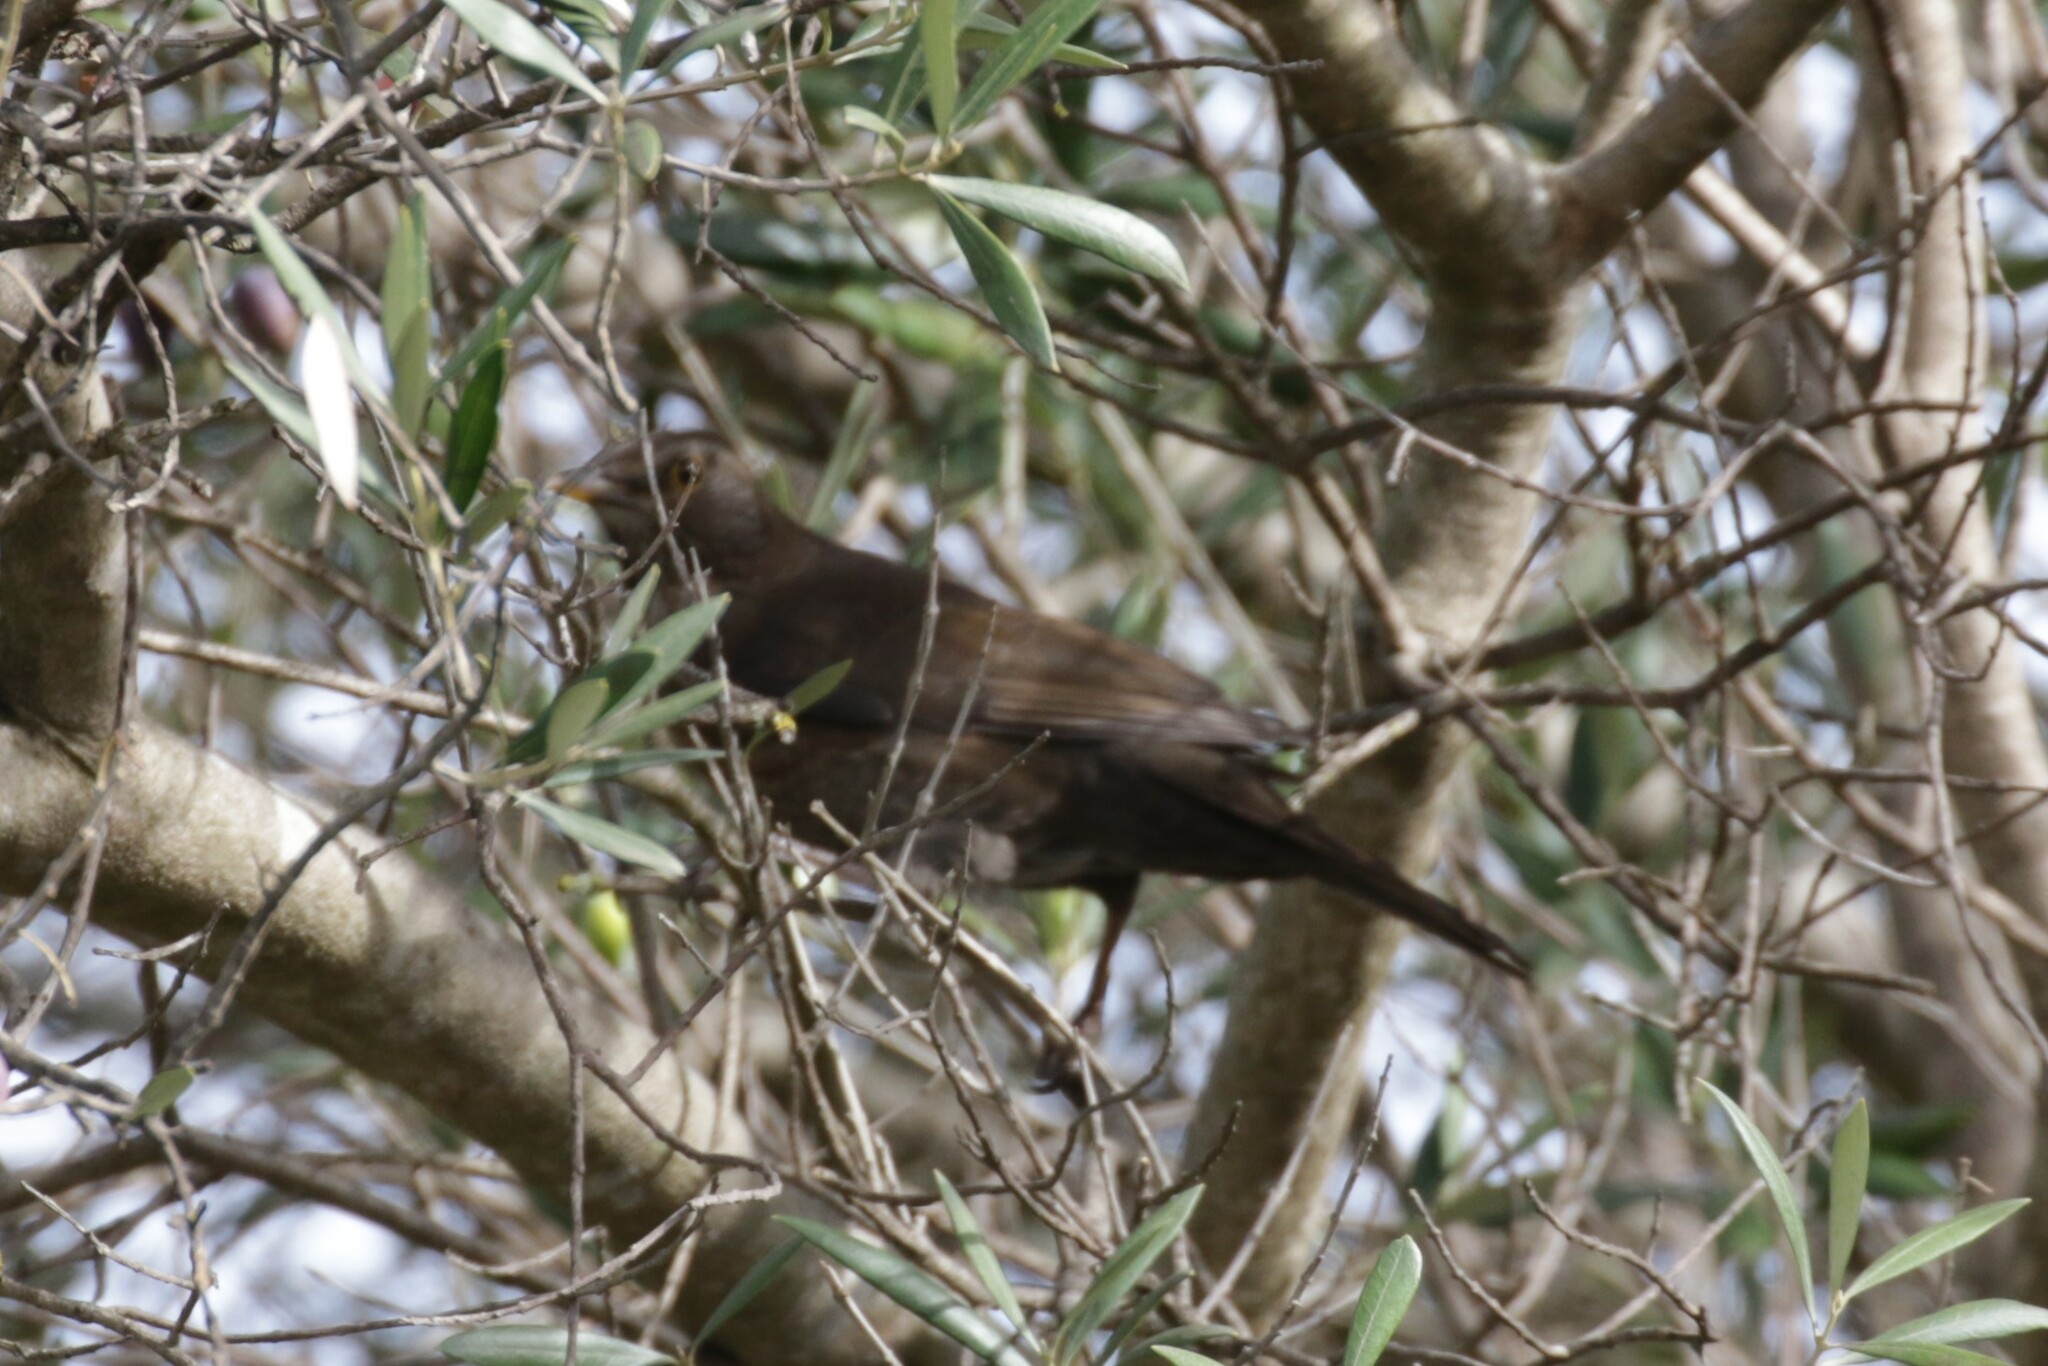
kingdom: Animalia
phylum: Chordata
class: Aves
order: Passeriformes
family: Turdidae
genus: Turdus
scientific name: Turdus merula
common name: Common blackbird
